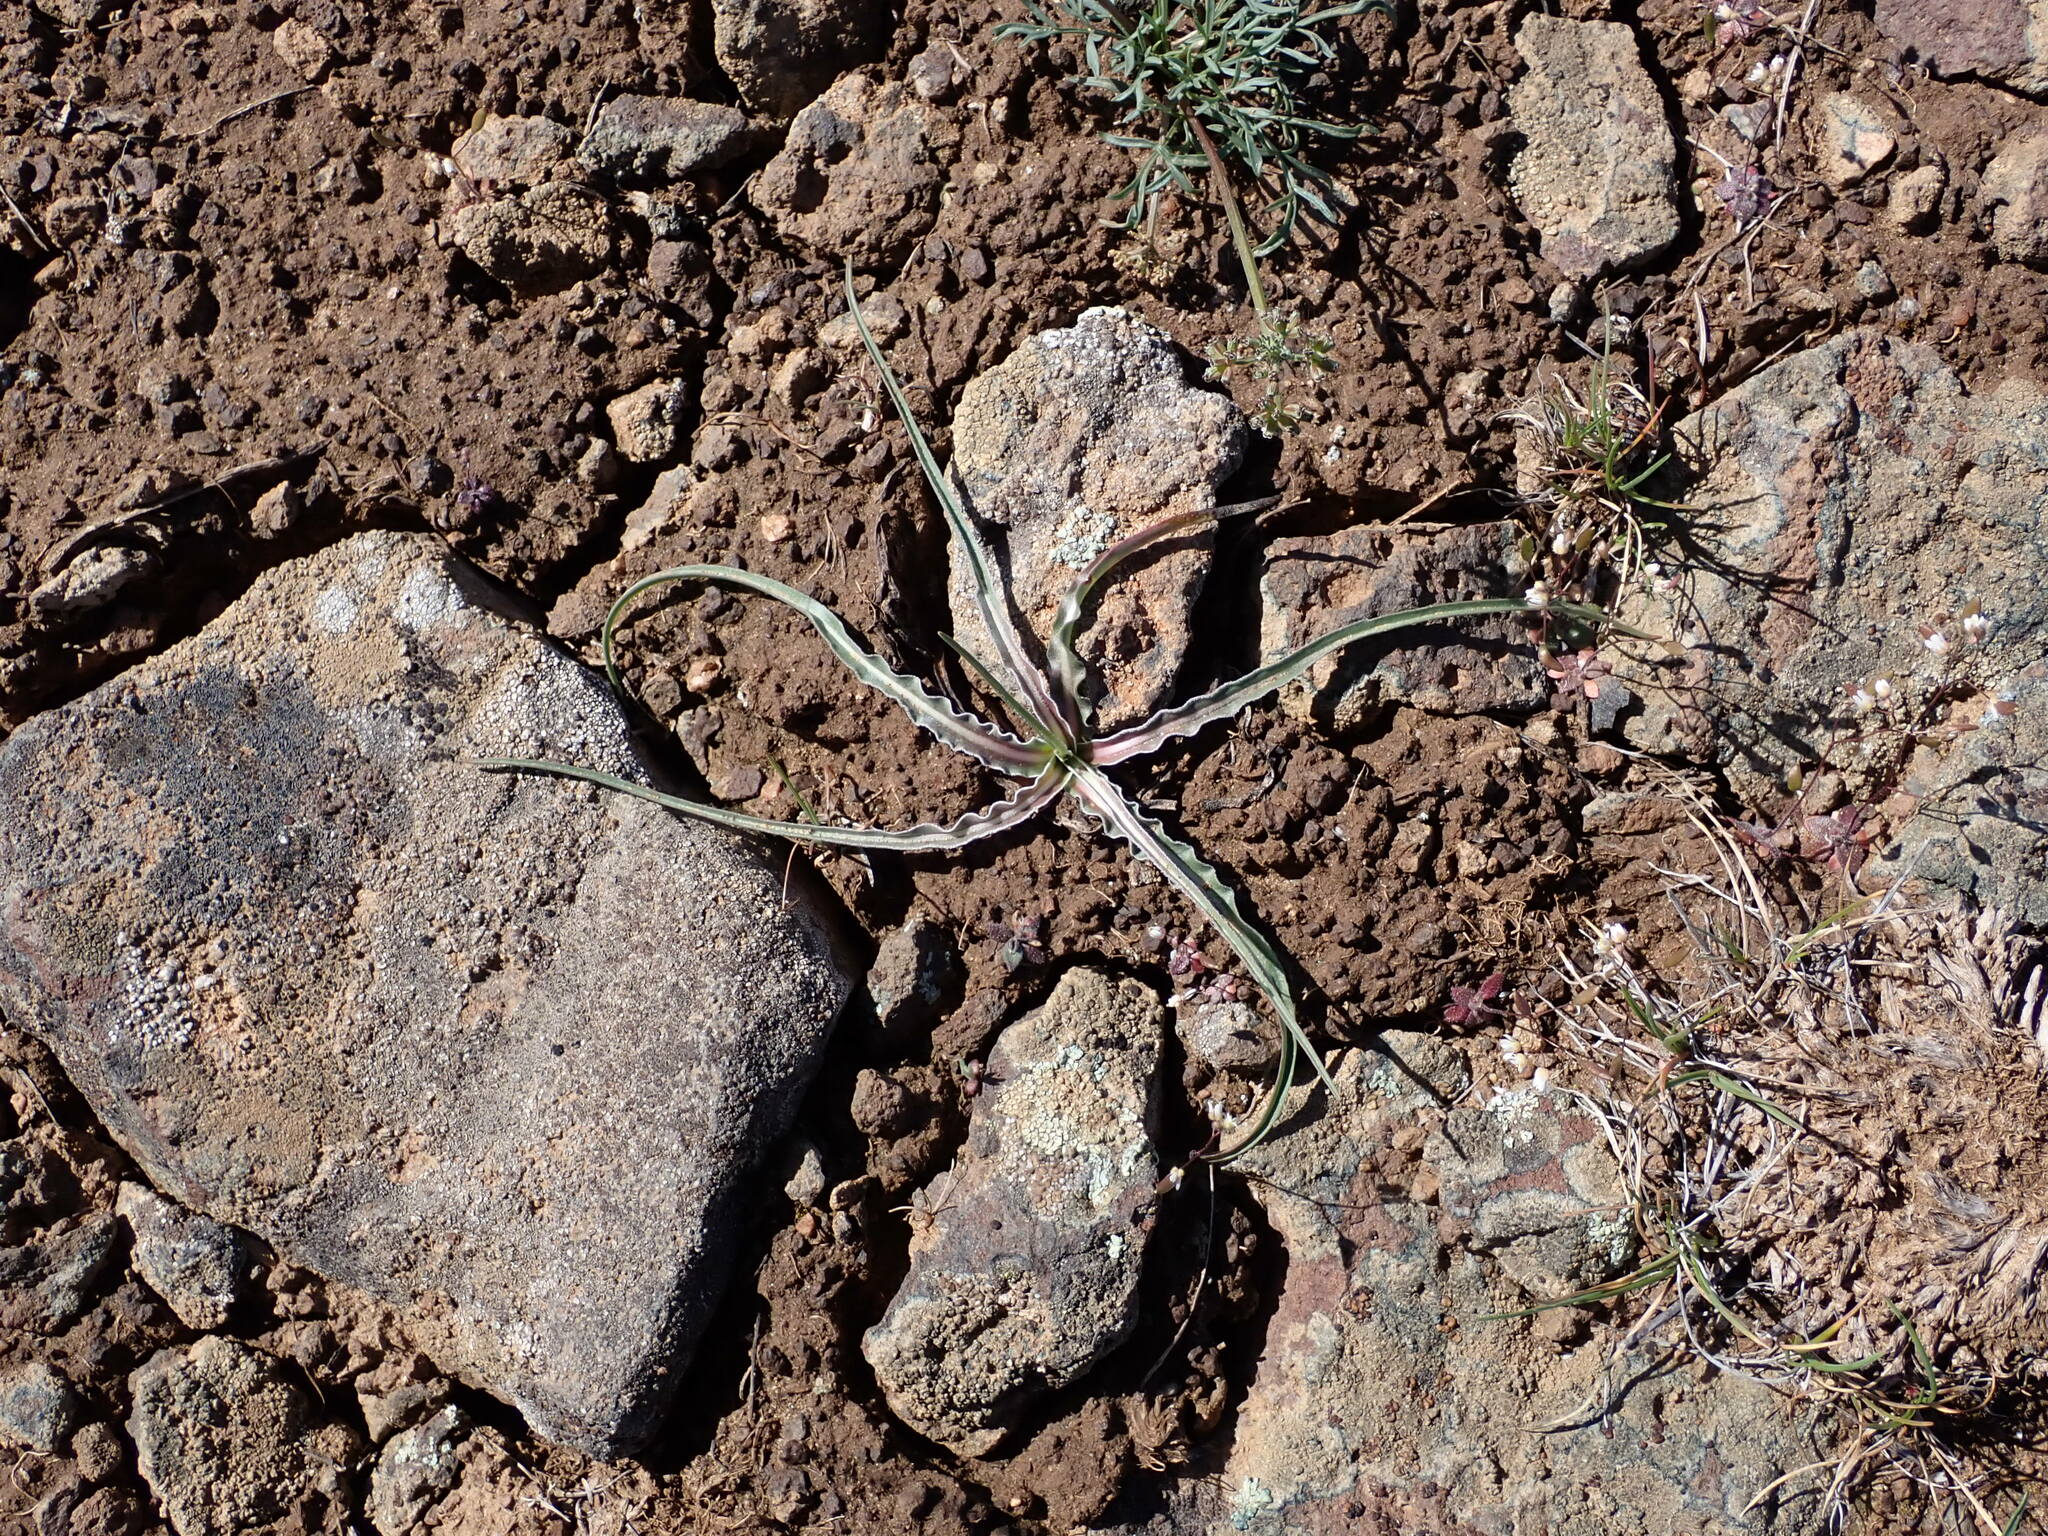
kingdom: Plantae
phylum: Tracheophyta
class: Magnoliopsida
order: Asterales
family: Asteraceae
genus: Microseris
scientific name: Microseris troximoides
